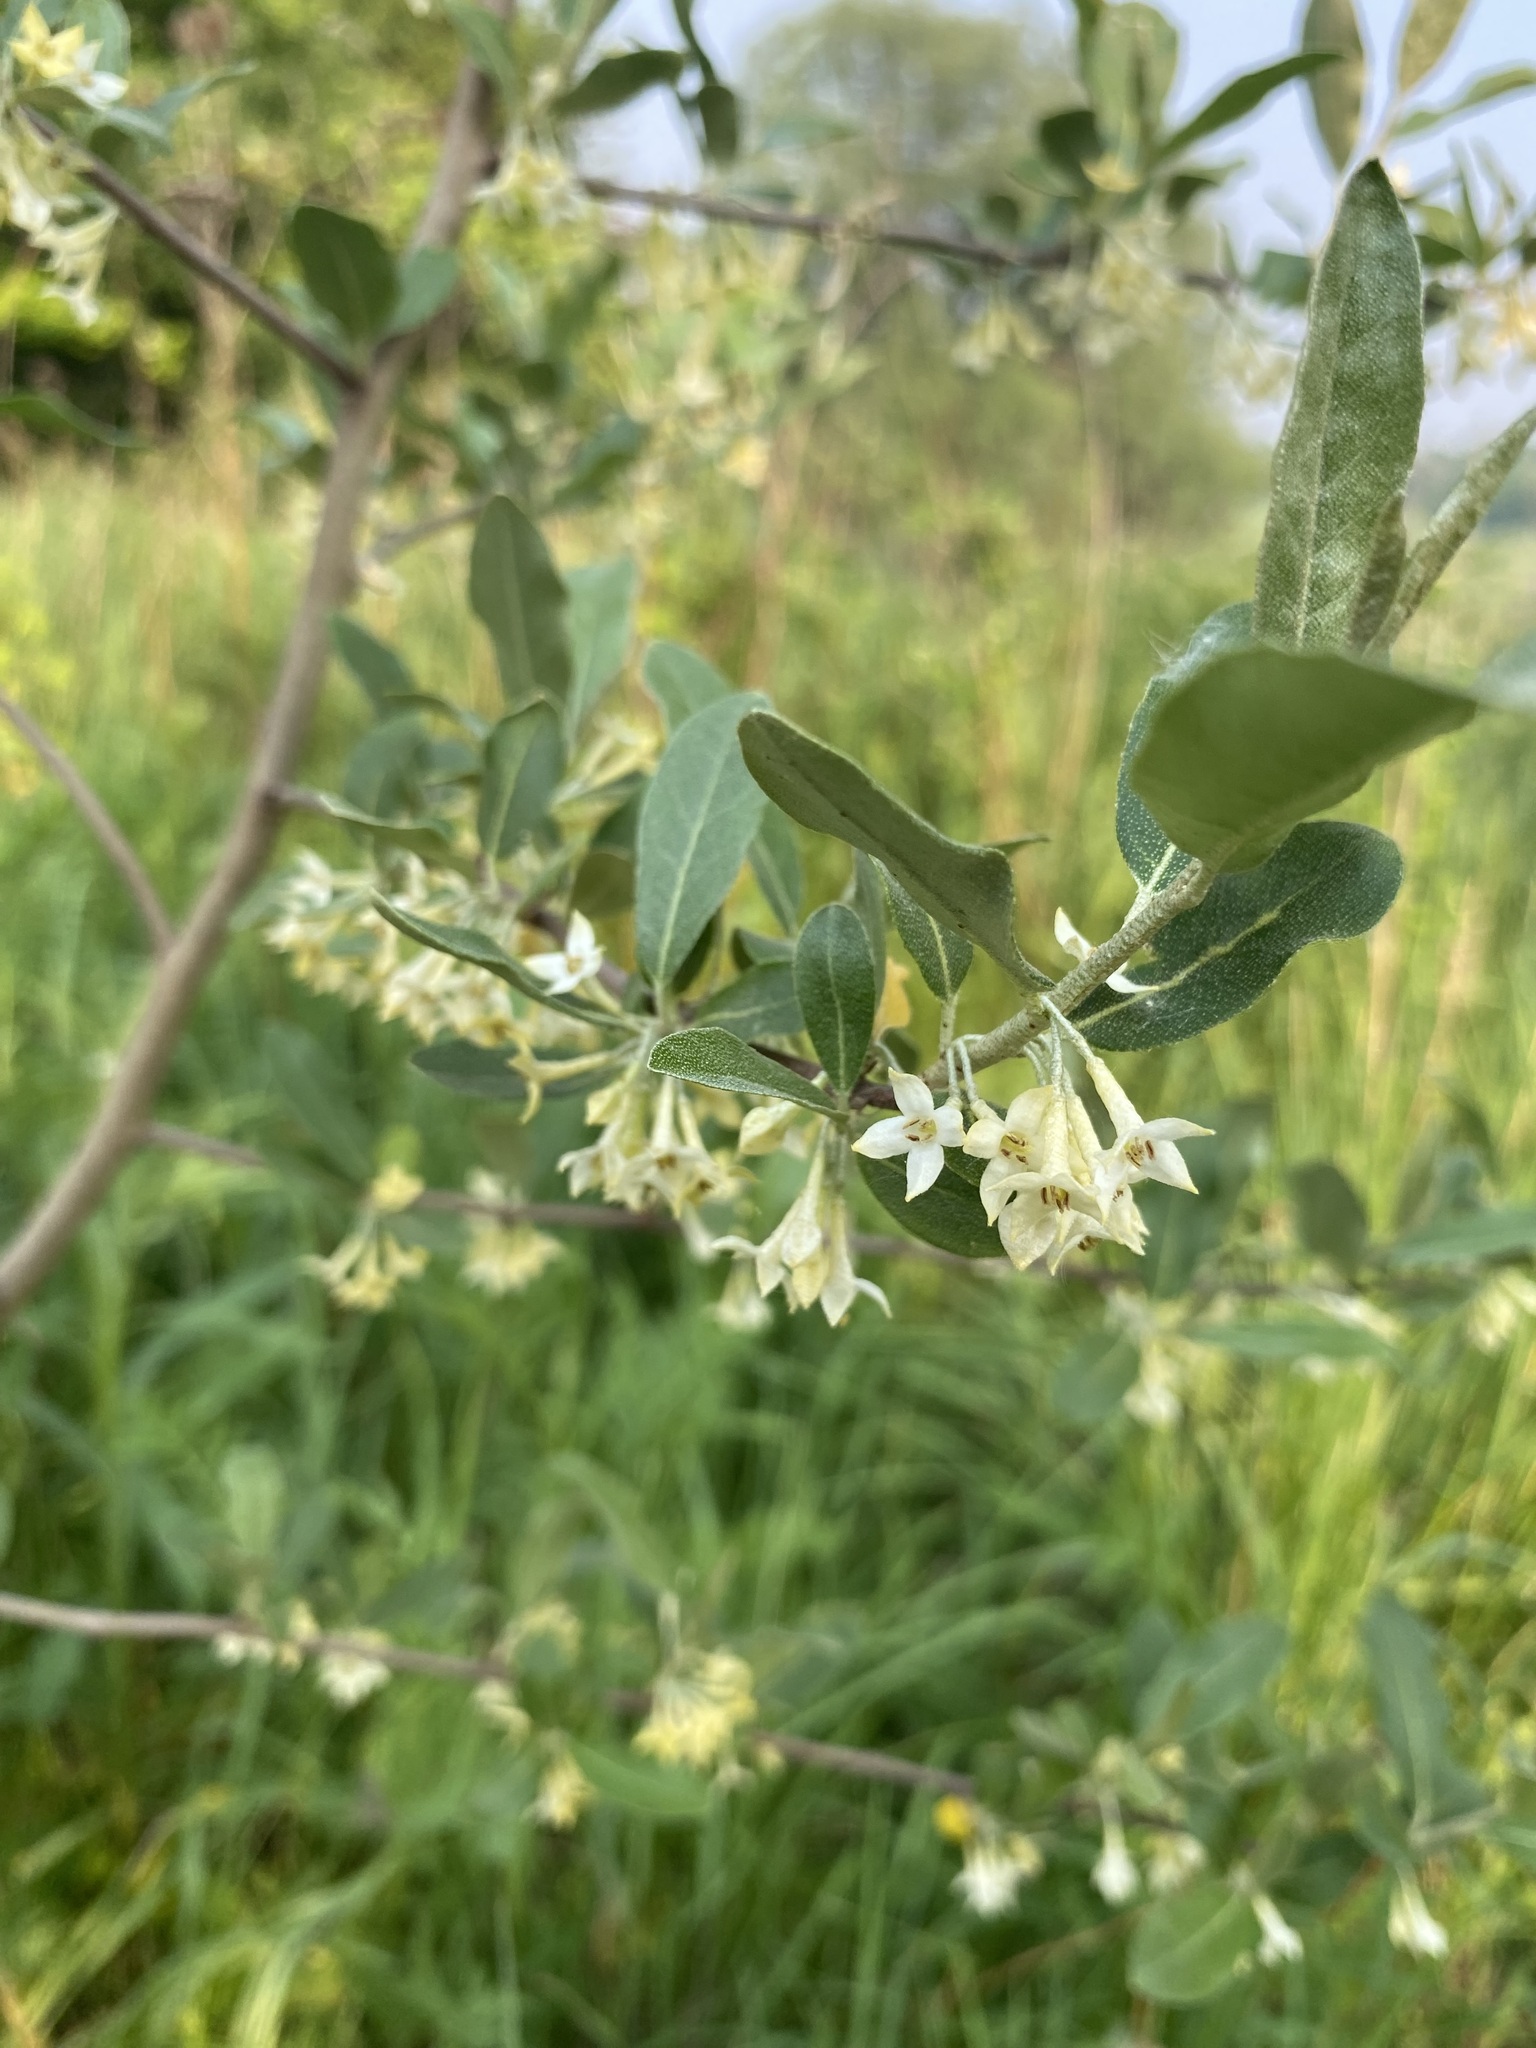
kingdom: Plantae
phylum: Tracheophyta
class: Magnoliopsida
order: Rosales
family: Elaeagnaceae
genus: Elaeagnus
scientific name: Elaeagnus umbellata
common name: Autumn olive
